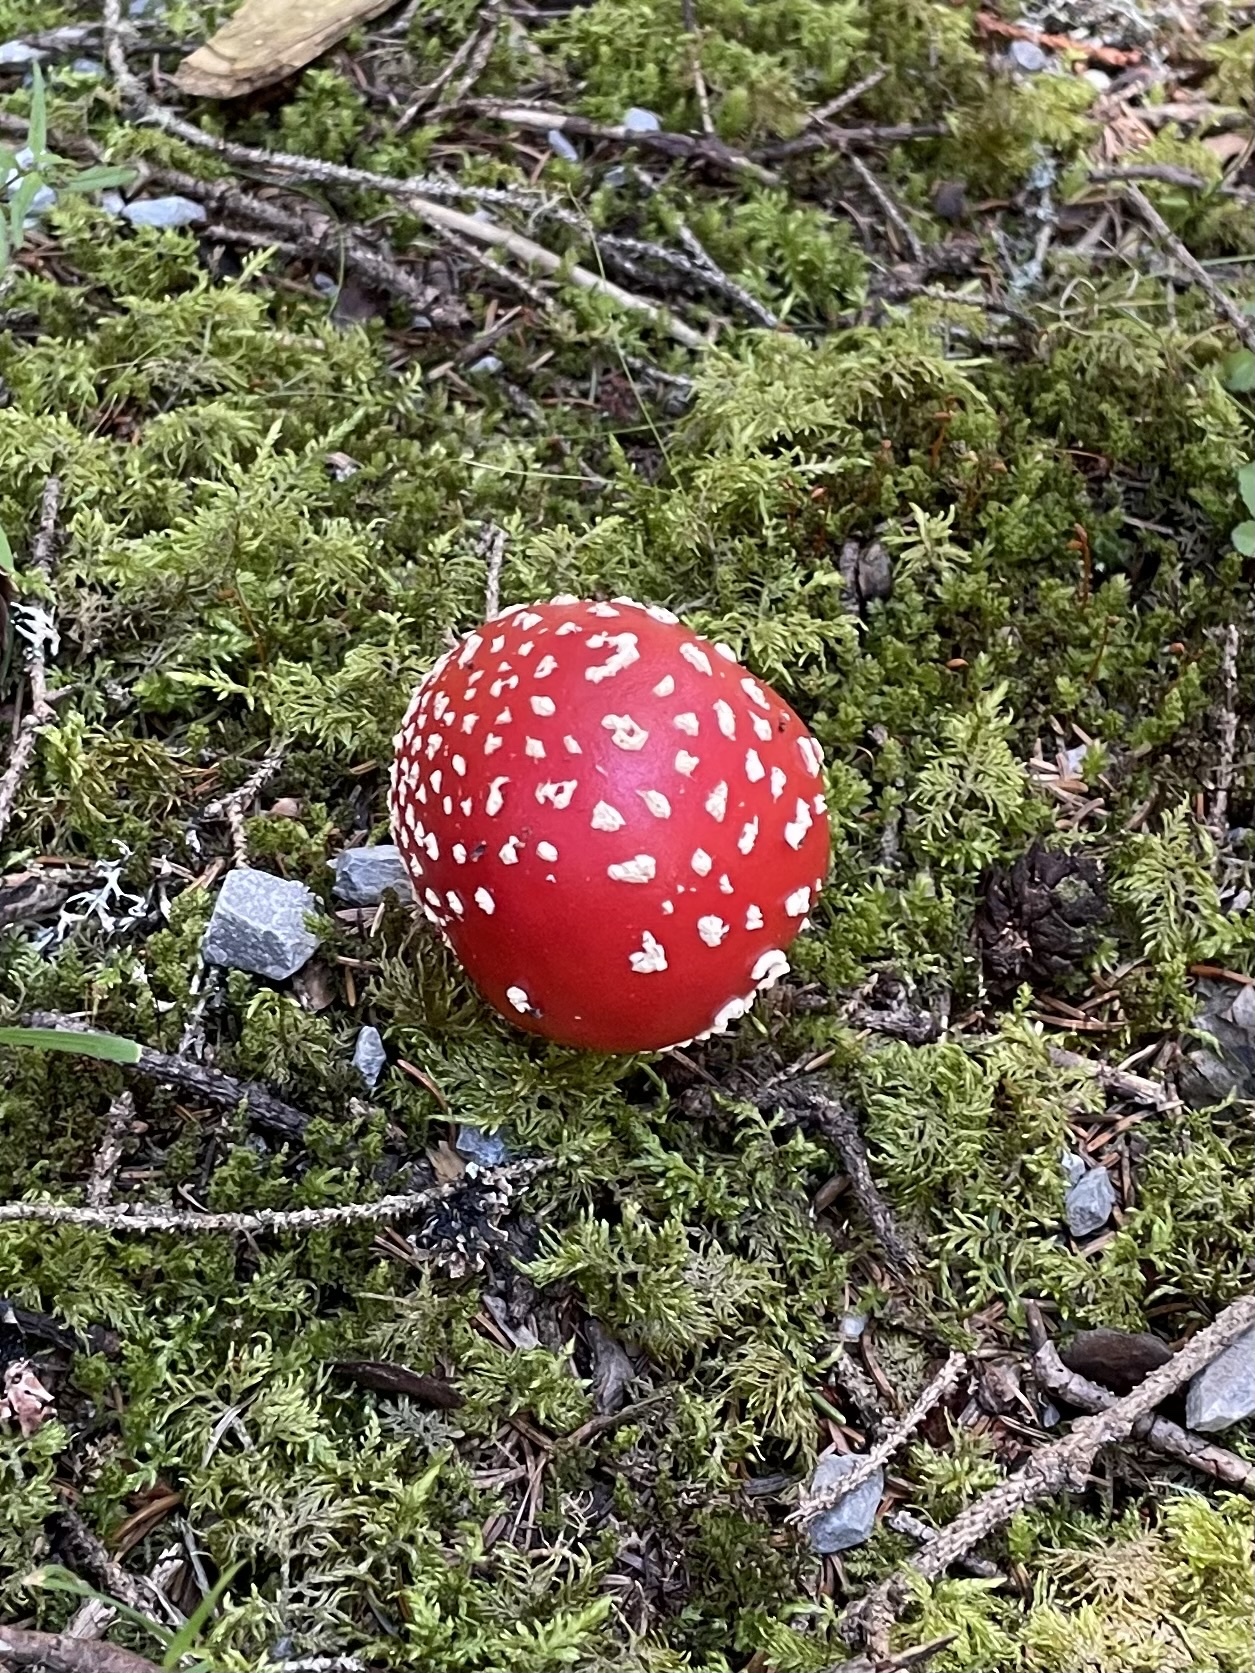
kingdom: Fungi
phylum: Basidiomycota
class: Agaricomycetes
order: Agaricales
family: Amanitaceae
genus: Amanita
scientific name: Amanita muscaria
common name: Fly agaric
